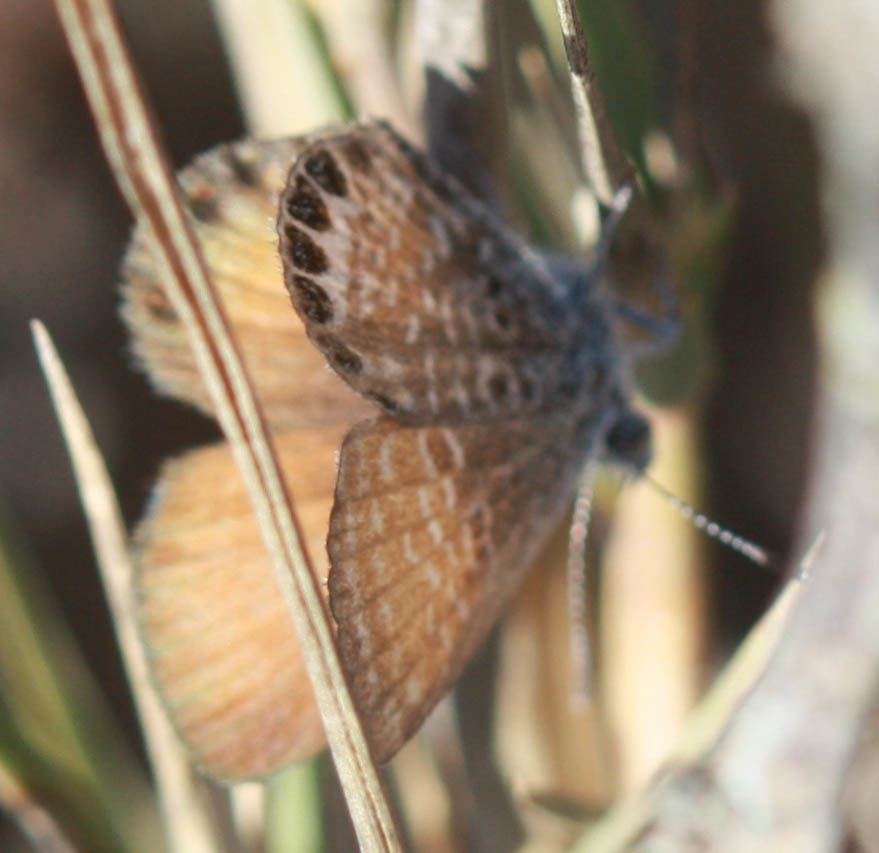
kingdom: Animalia
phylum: Arthropoda
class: Insecta
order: Lepidoptera
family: Lycaenidae
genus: Brephidium
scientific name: Brephidium exilis
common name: Pygmy blue
